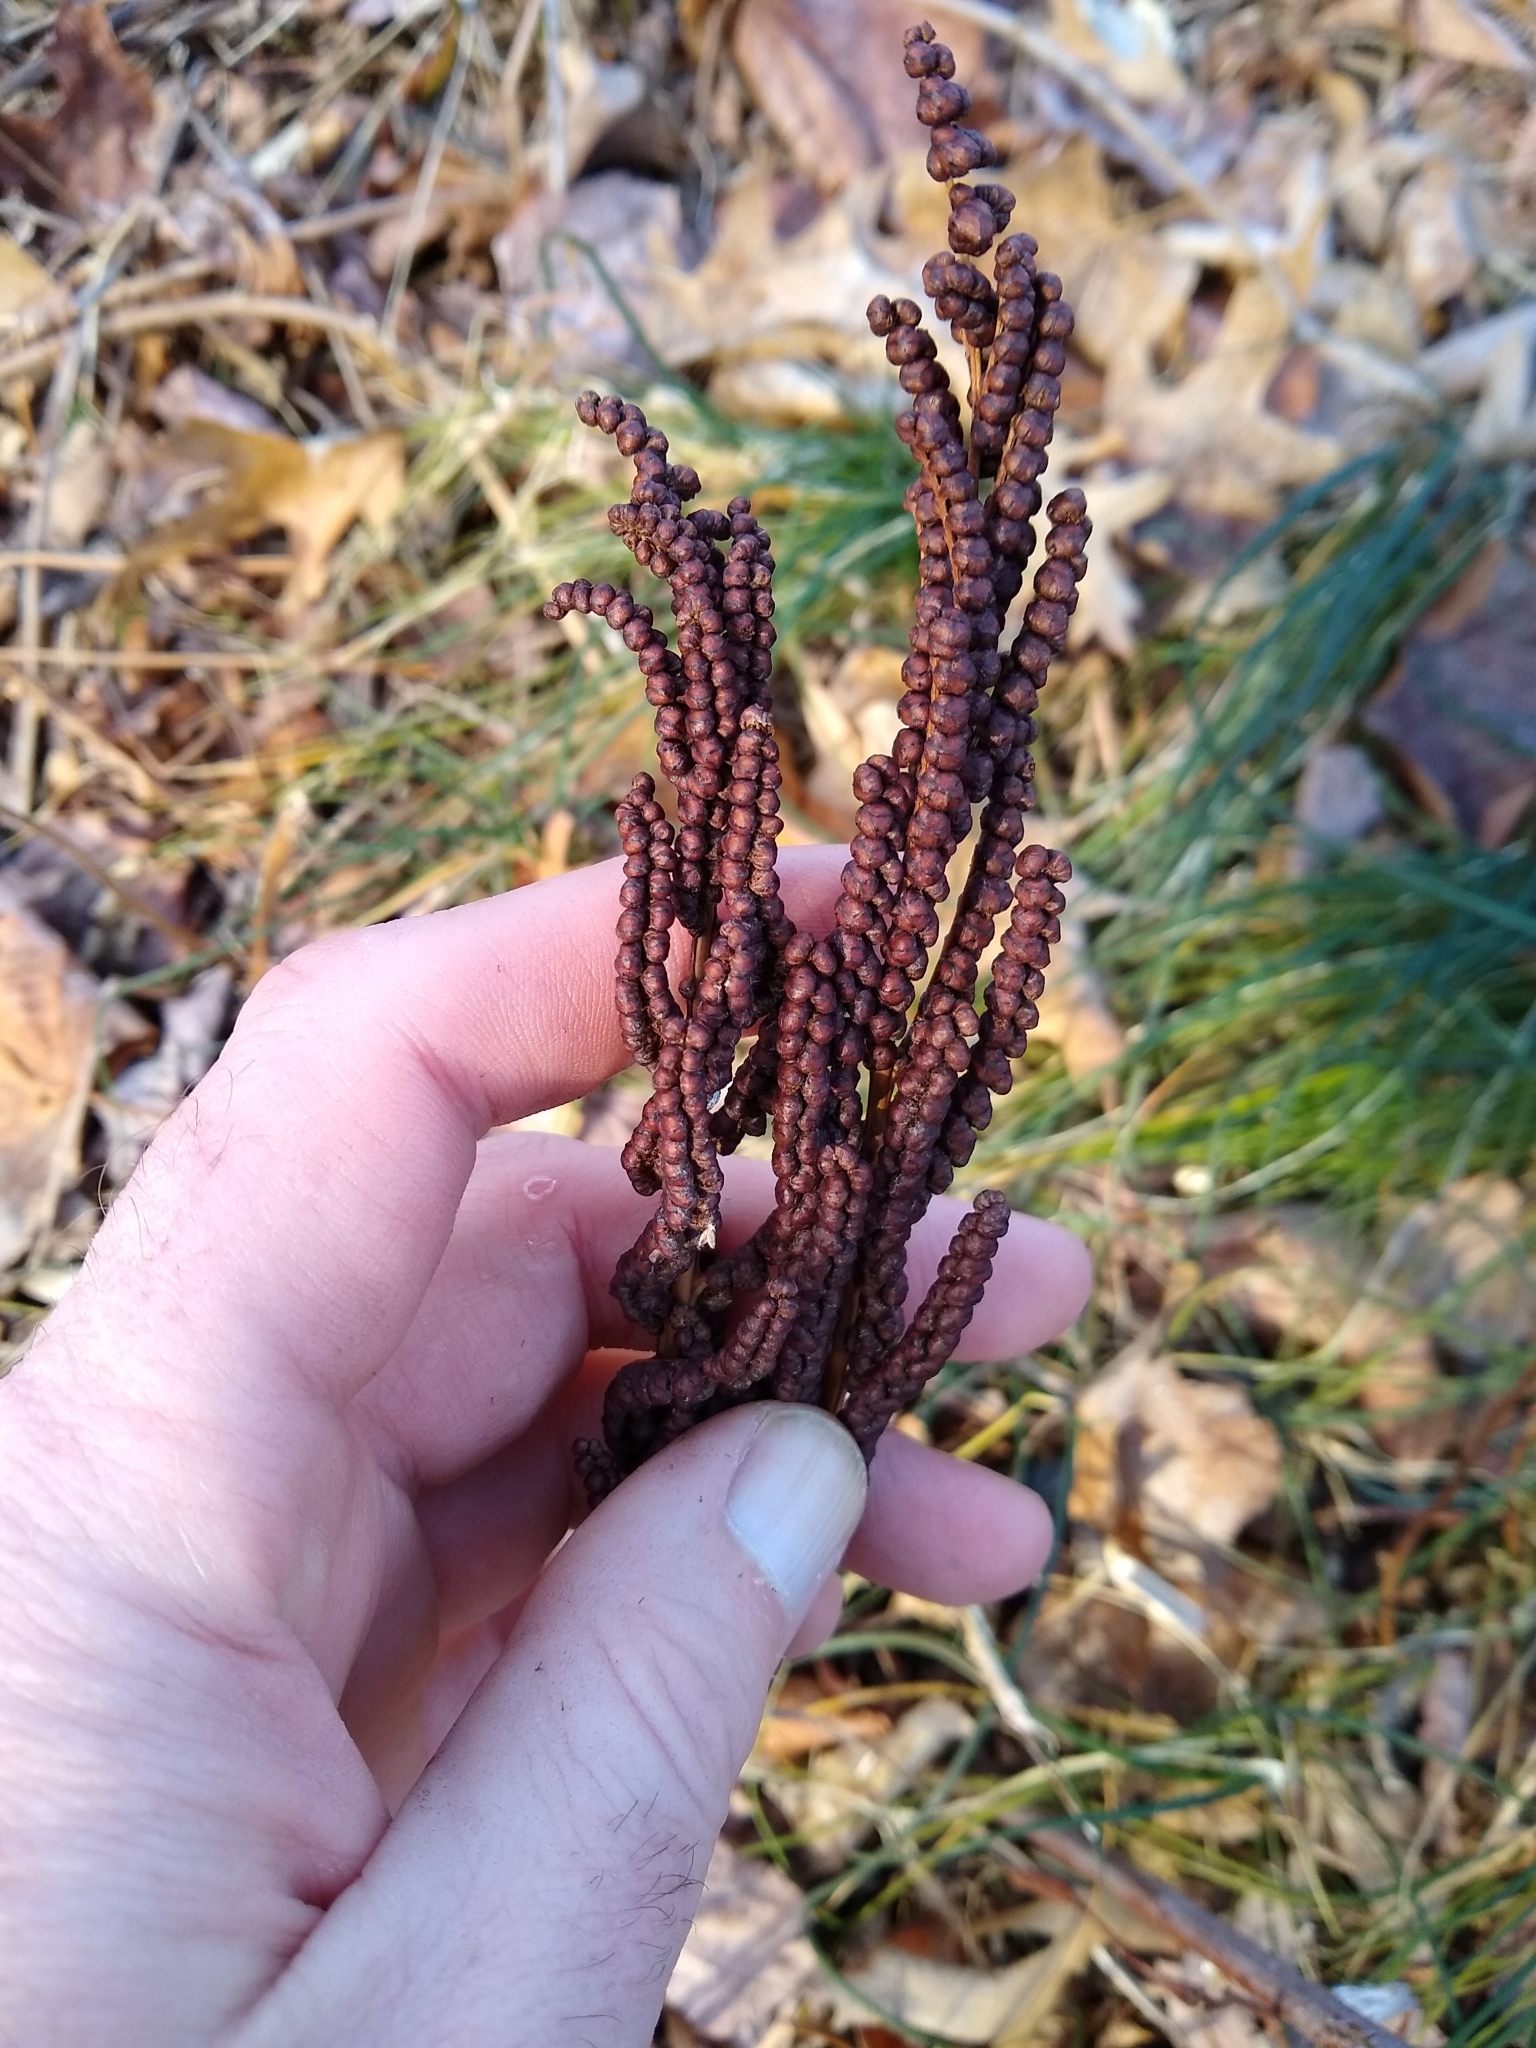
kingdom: Plantae
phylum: Tracheophyta
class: Polypodiopsida
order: Polypodiales
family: Onocleaceae
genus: Onoclea
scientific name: Onoclea sensibilis
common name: Sensitive fern
